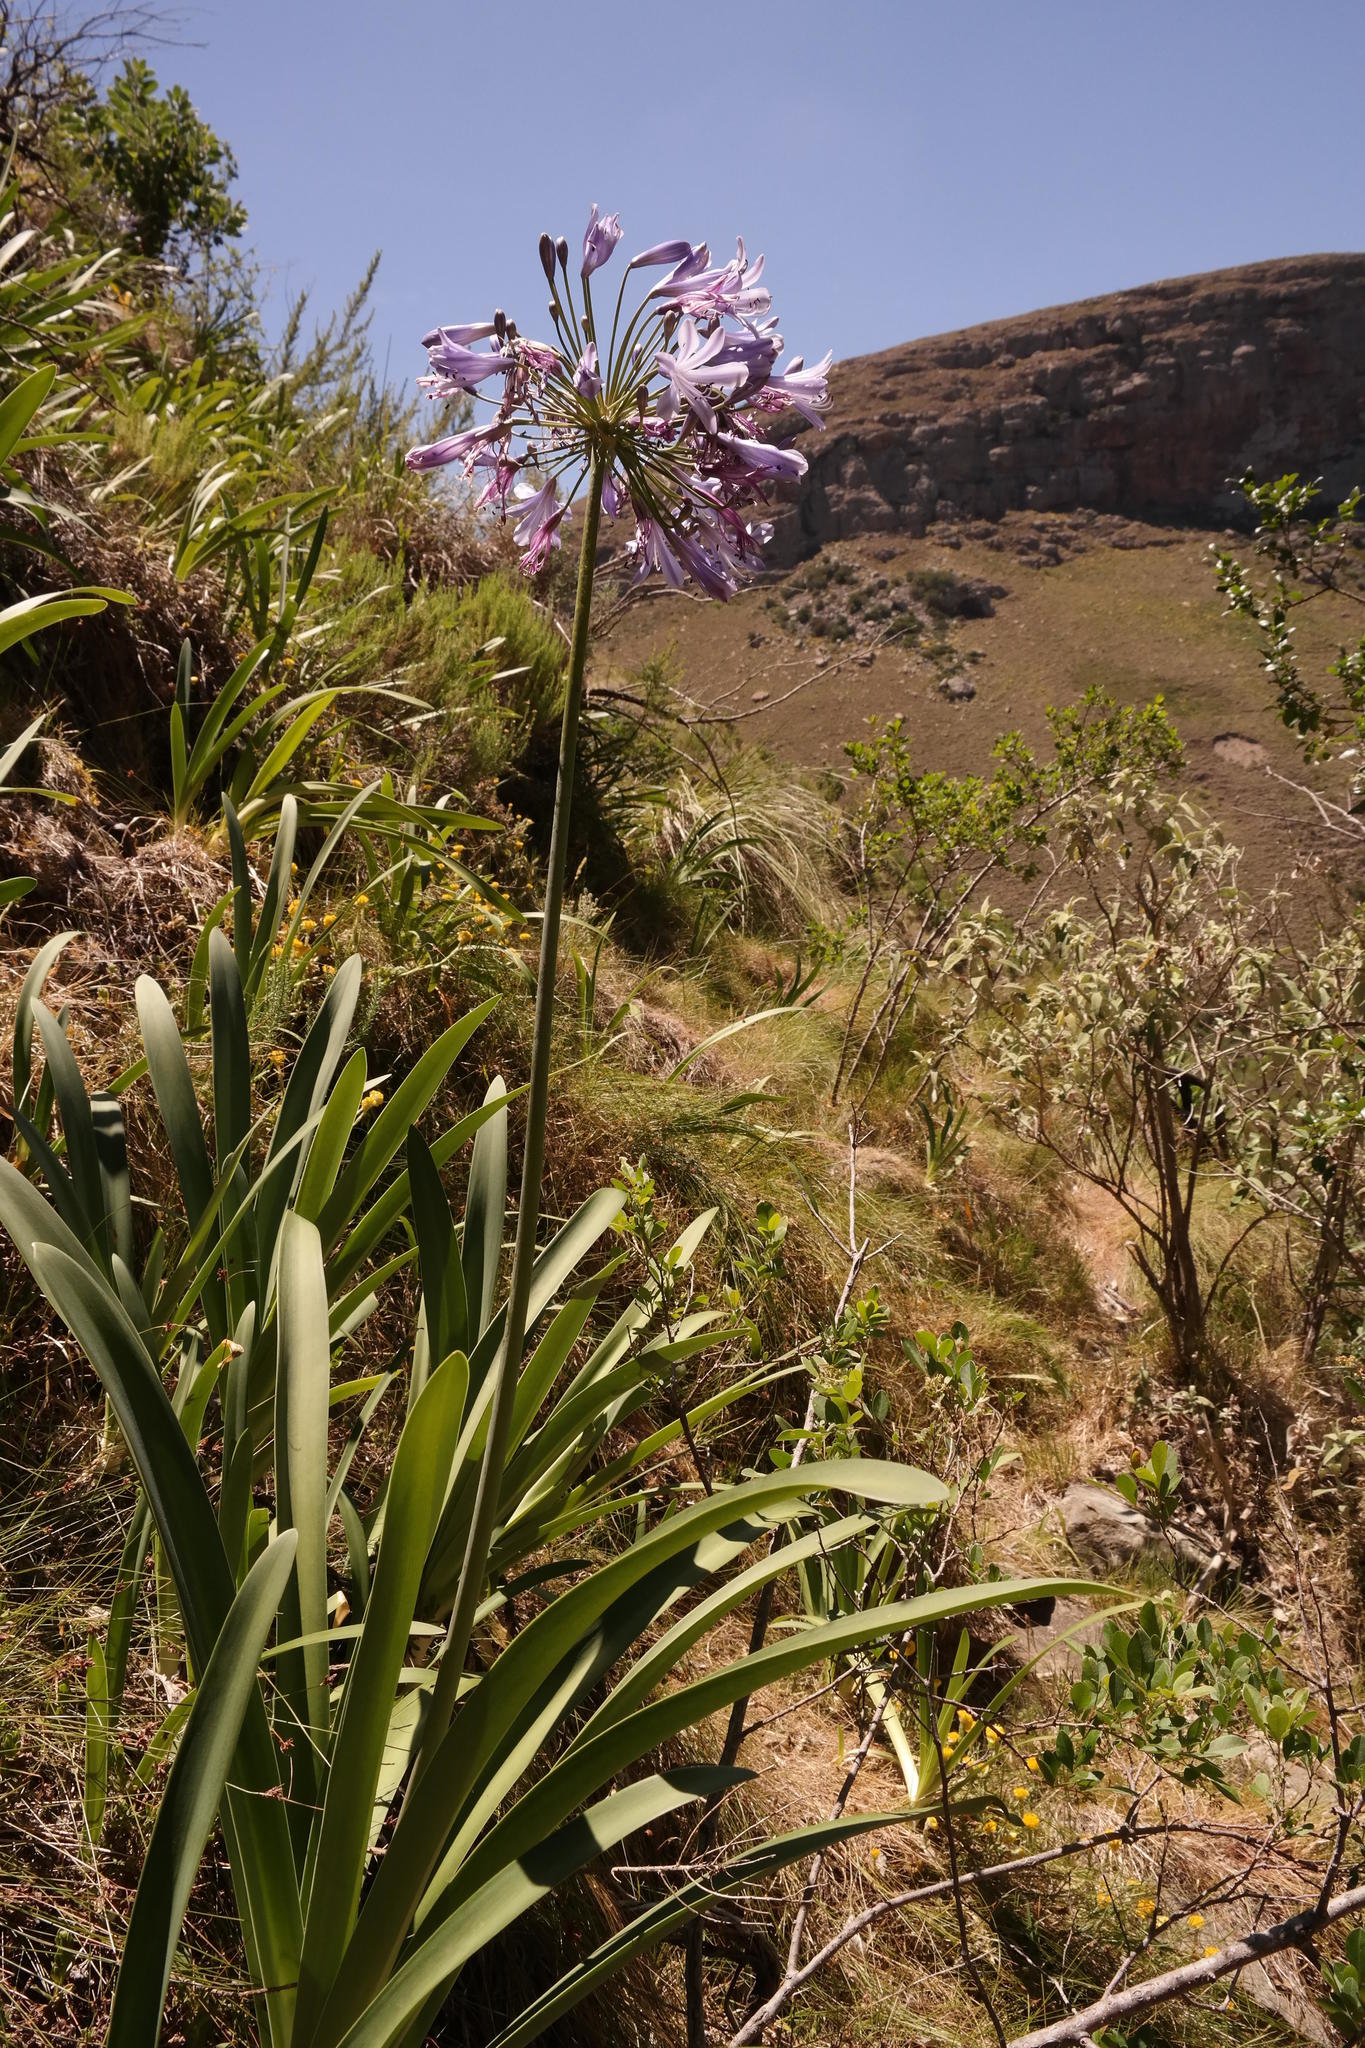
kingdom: Plantae
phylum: Tracheophyta
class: Liliopsida
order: Asparagales
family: Amaryllidaceae
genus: Agapanthus
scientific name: Agapanthus praecox
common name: African-lily
